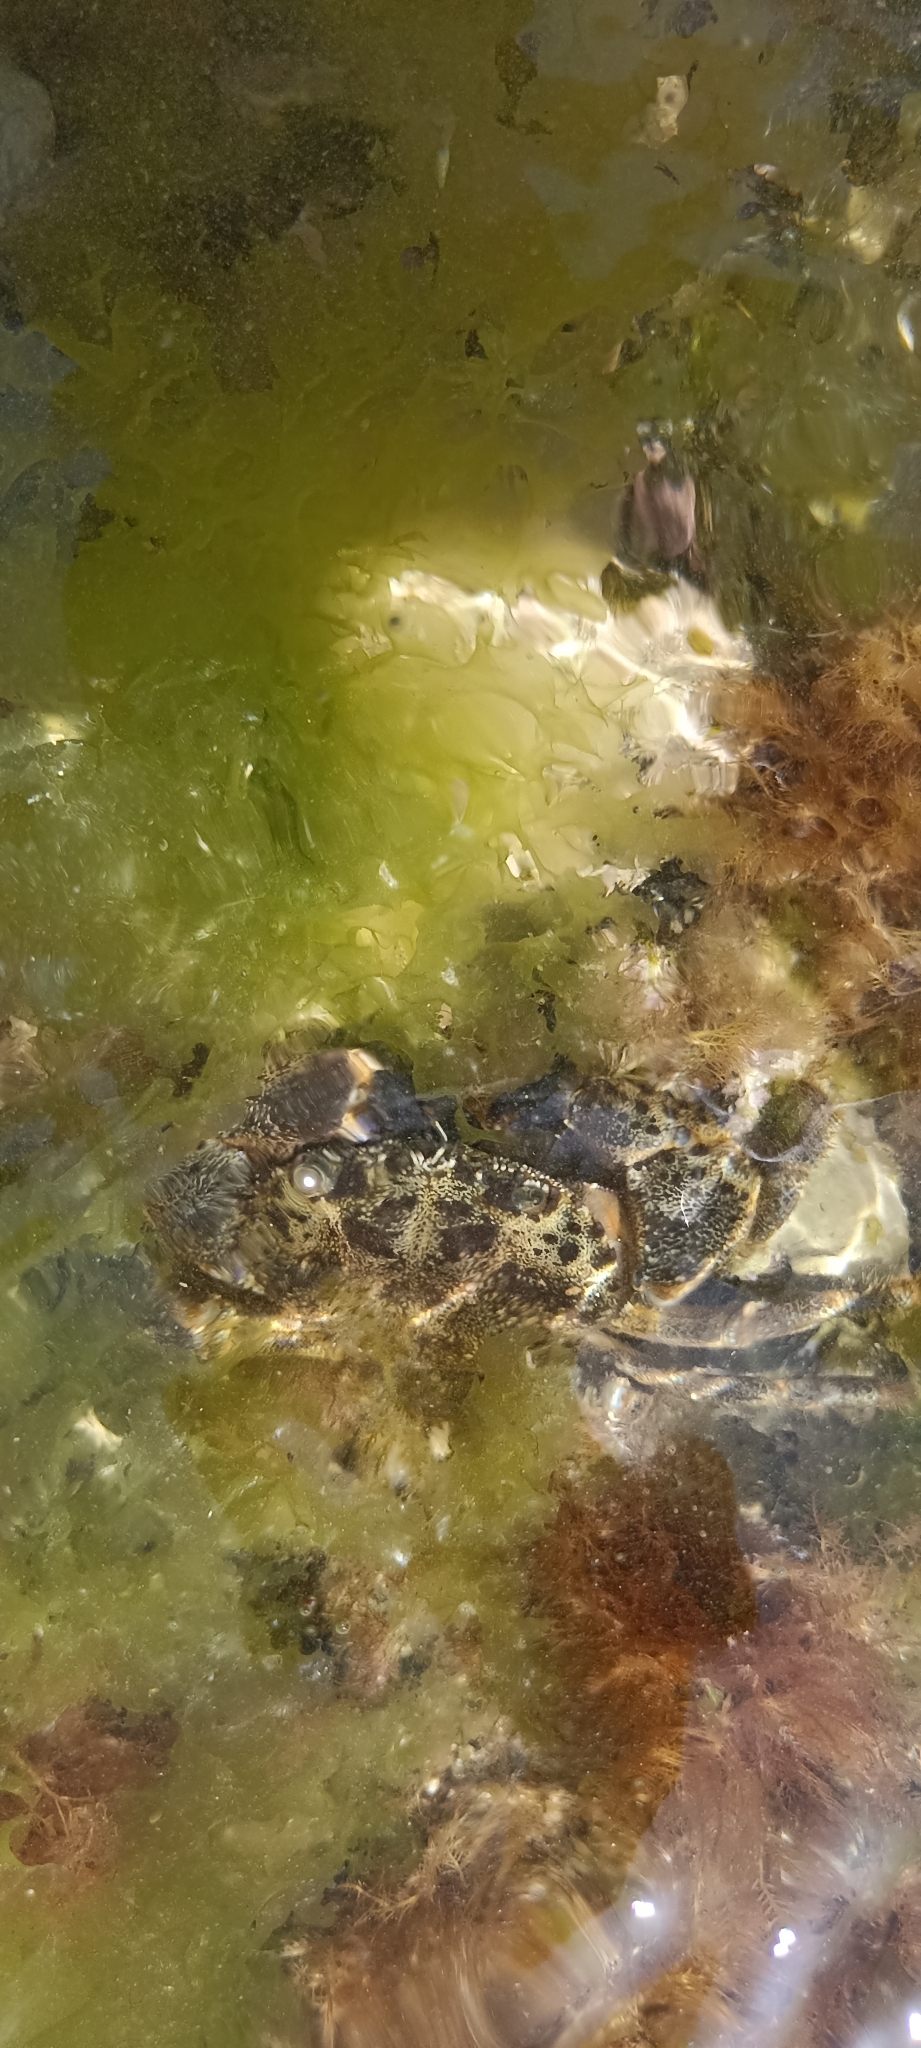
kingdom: Animalia
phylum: Arthropoda
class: Malacostraca
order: Decapoda
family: Eriphiidae
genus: Eriphia
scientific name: Eriphia verrucosa
